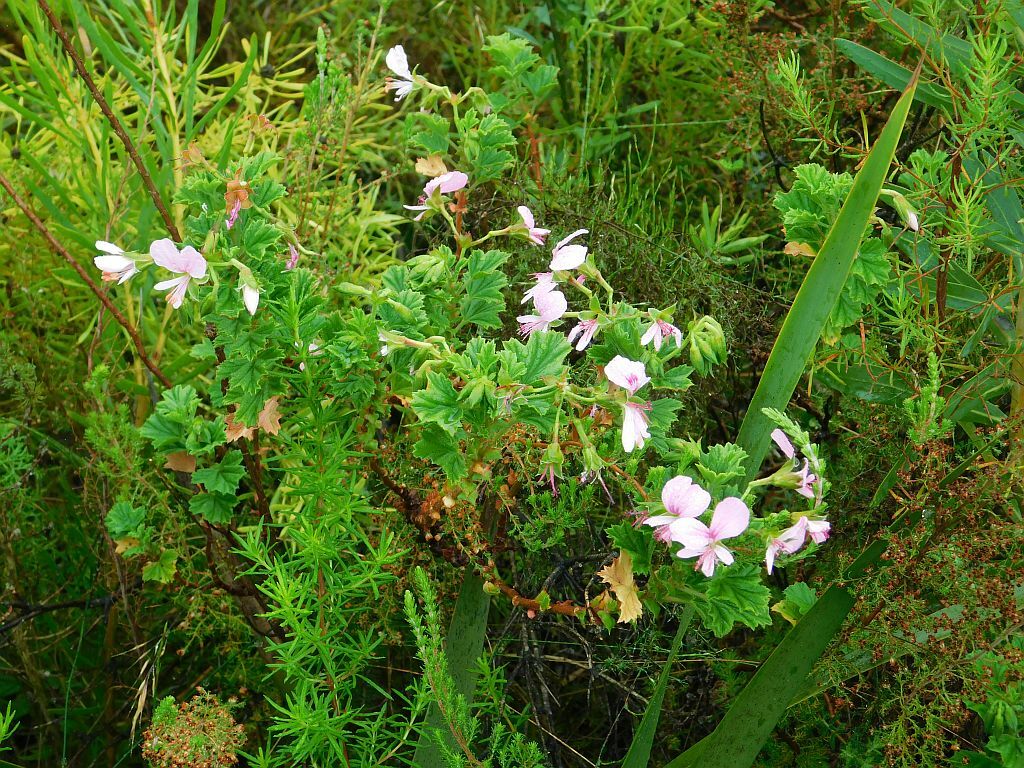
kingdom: Plantae
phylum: Tracheophyta
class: Magnoliopsida
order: Geraniales
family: Geraniaceae
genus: Pelargonium
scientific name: Pelargonium crispum
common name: Crisped-leaf pelargonium
